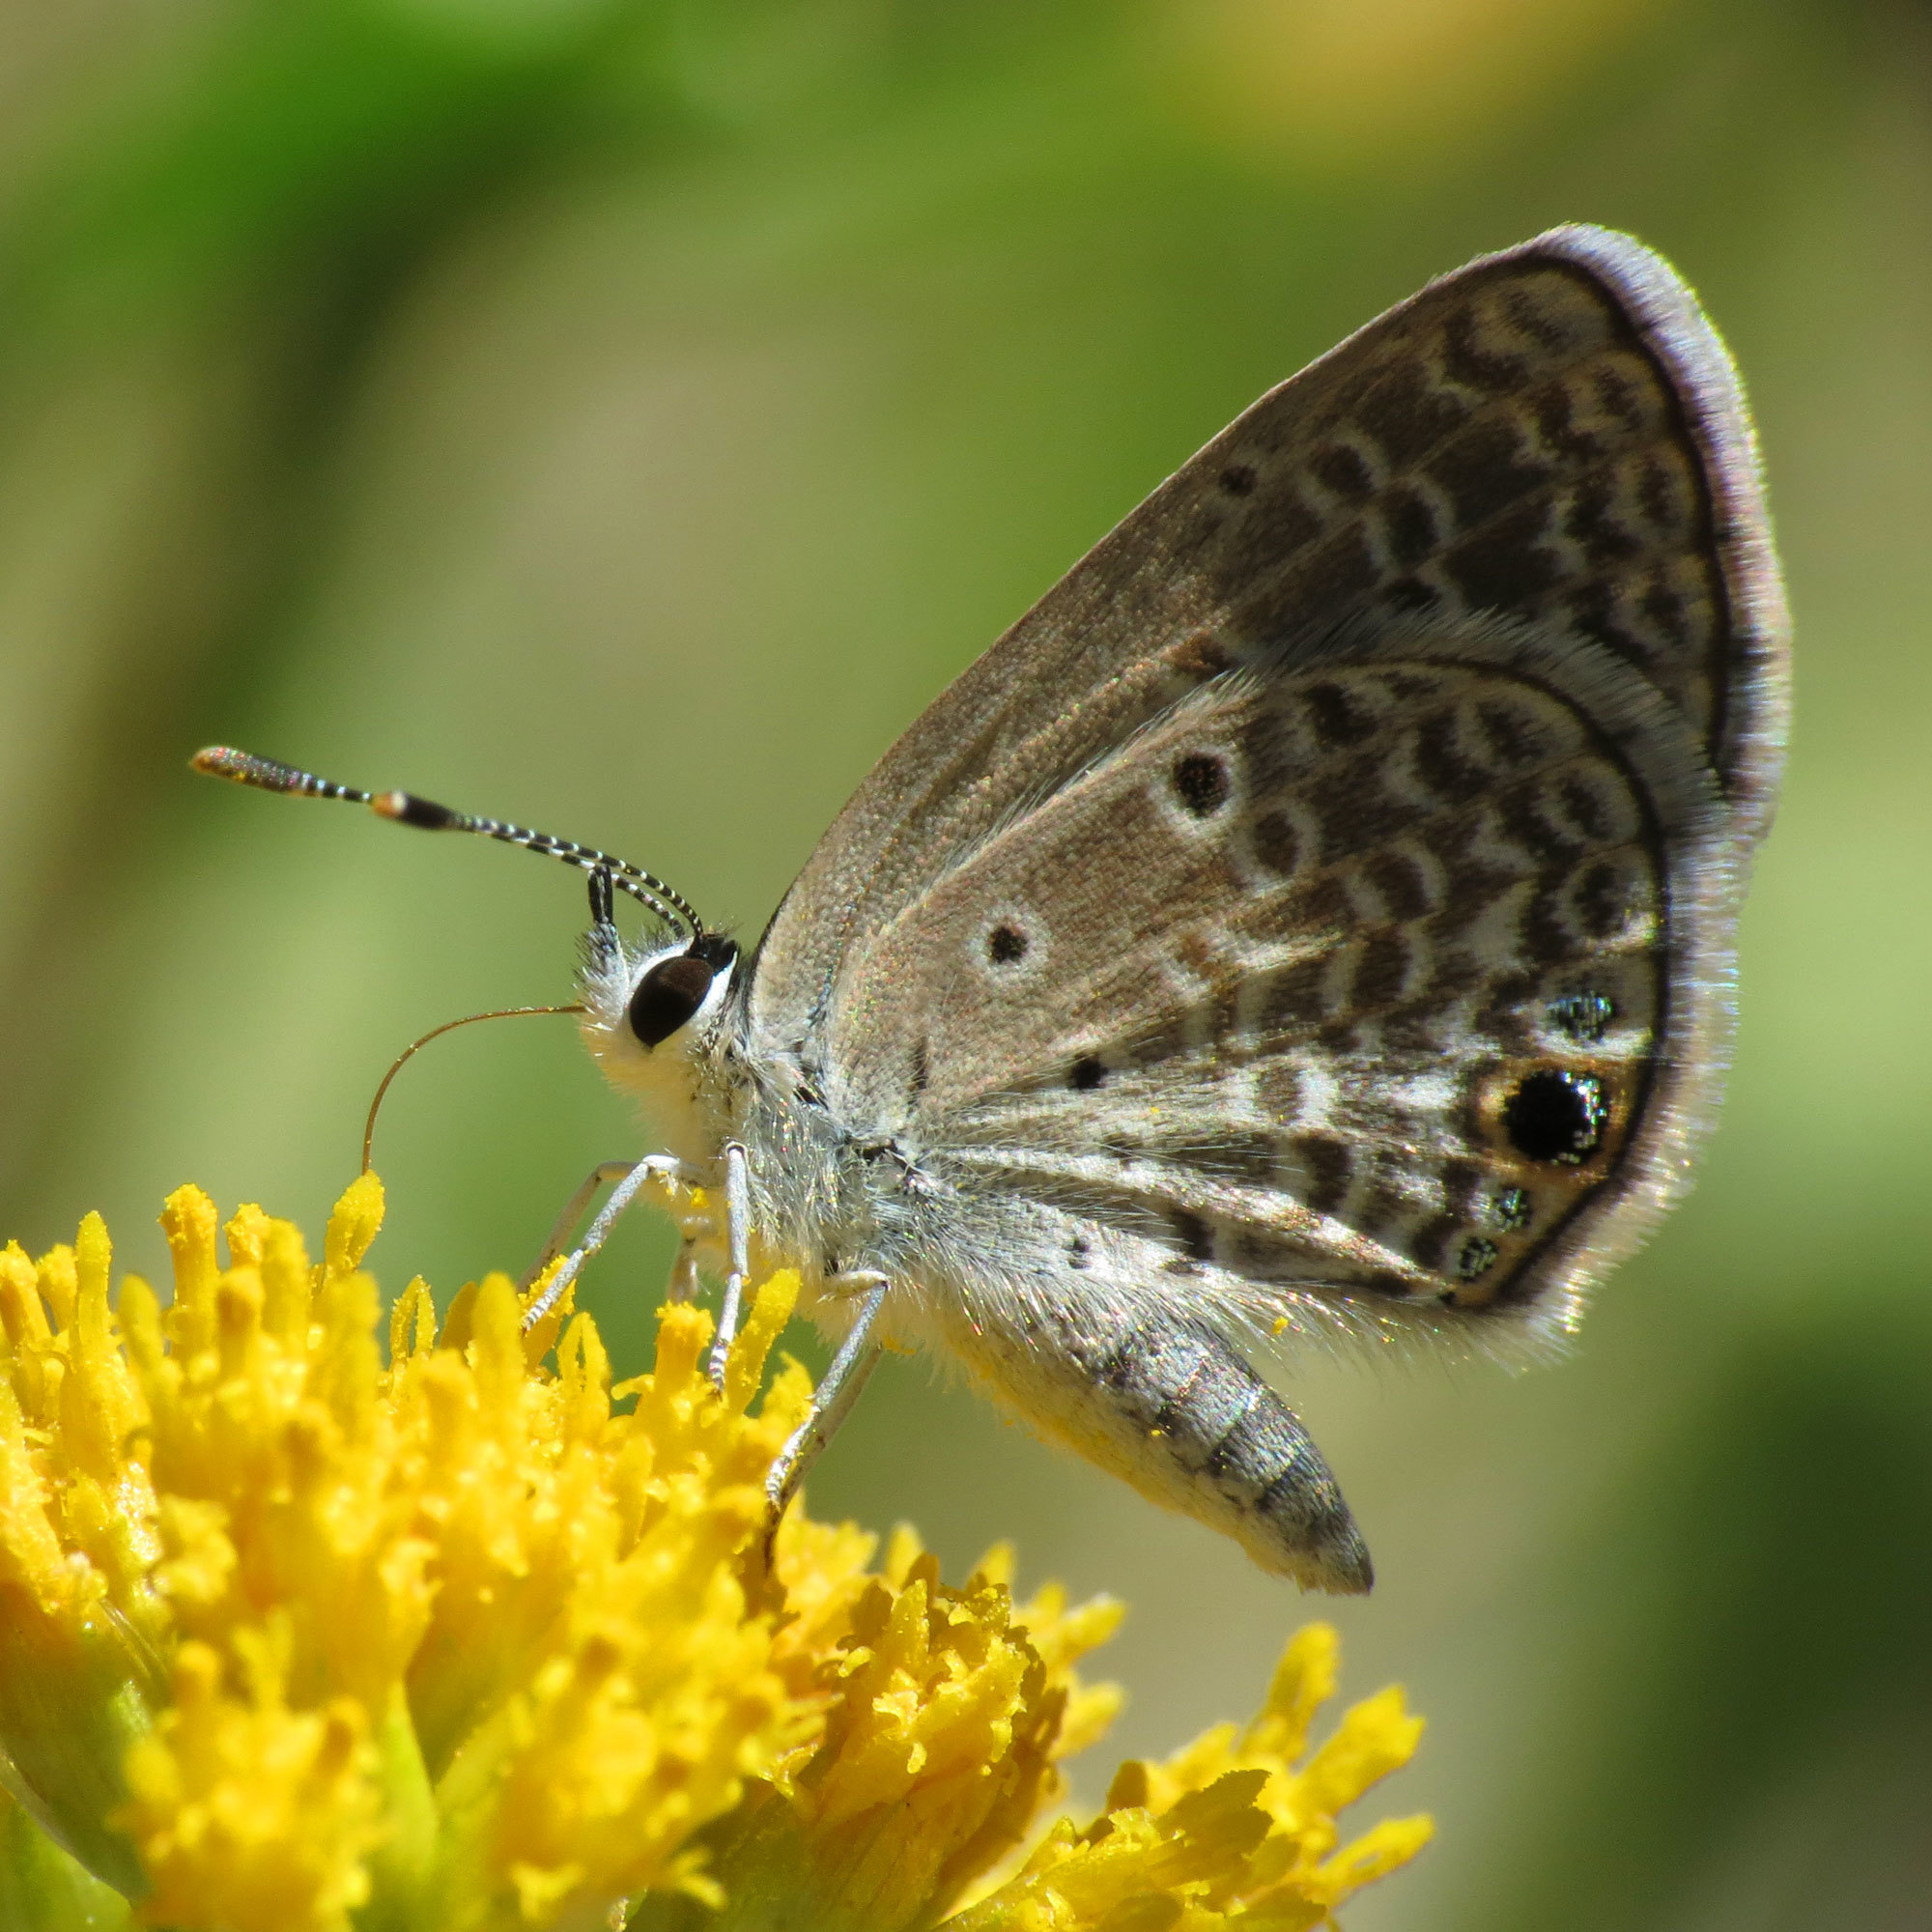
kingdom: Animalia
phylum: Arthropoda
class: Insecta
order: Lepidoptera
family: Lycaenidae
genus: Hemiargus
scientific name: Hemiargus ceraunus
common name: Ceraunus blue
